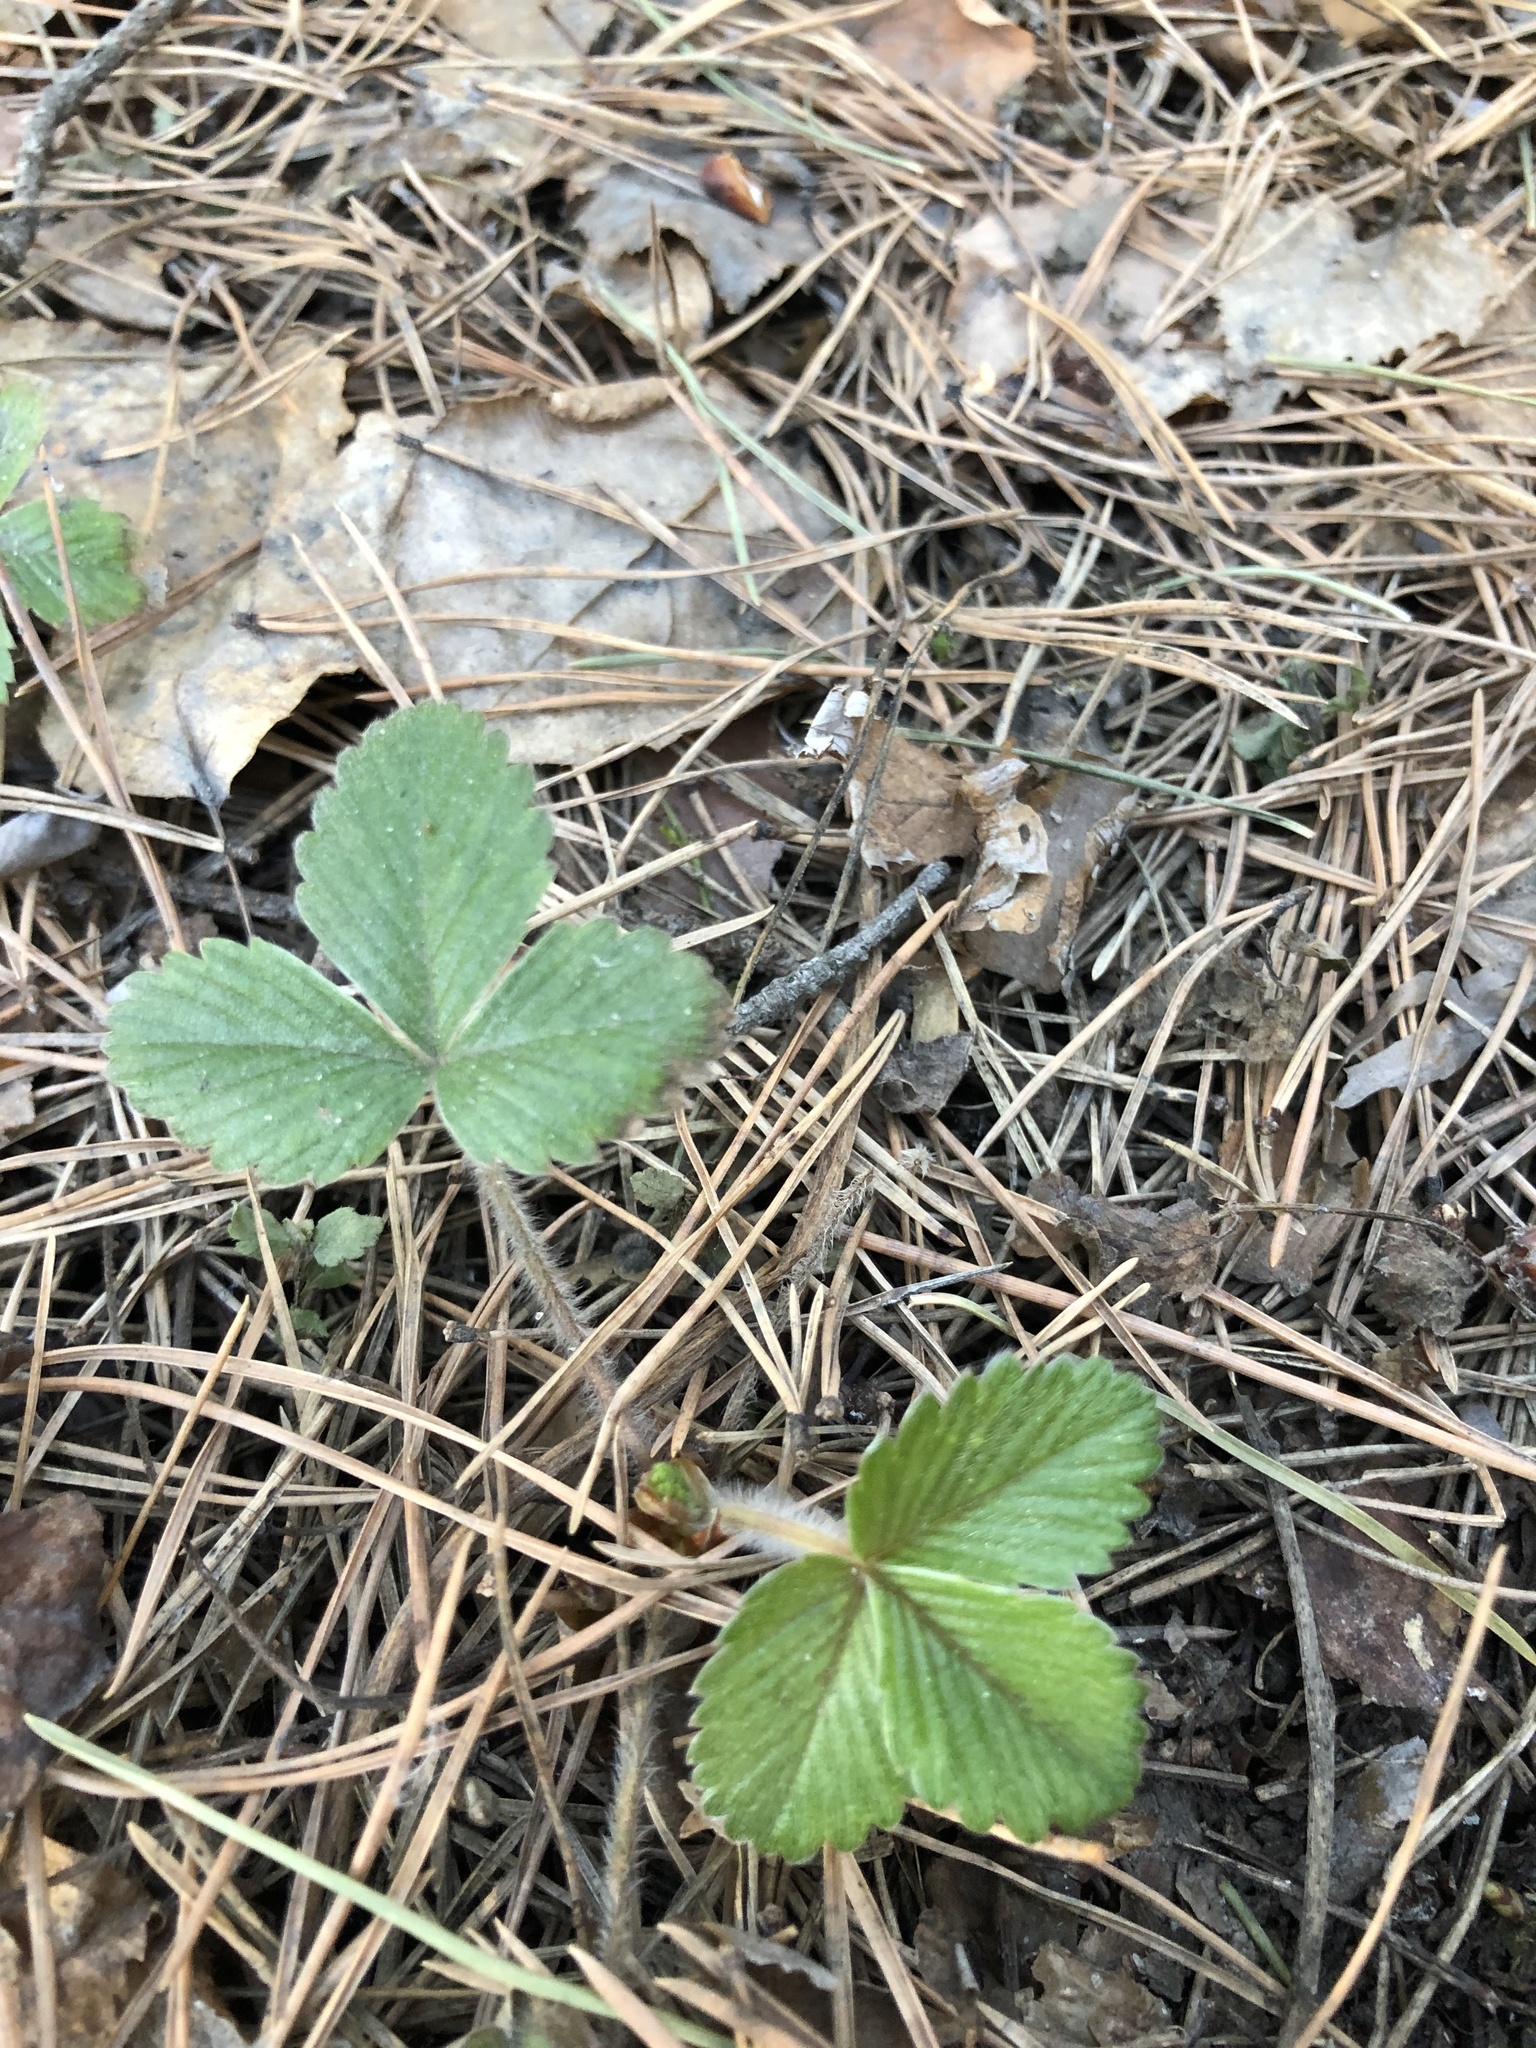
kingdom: Plantae
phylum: Tracheophyta
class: Magnoliopsida
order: Rosales
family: Rosaceae
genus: Fragaria
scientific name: Fragaria vesca
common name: Wild strawberry
